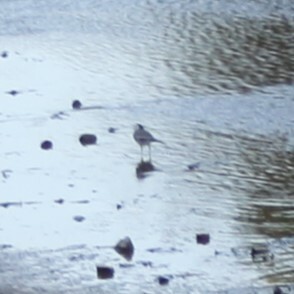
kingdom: Animalia
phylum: Chordata
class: Aves
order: Passeriformes
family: Motacillidae
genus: Motacilla
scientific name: Motacilla alba
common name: White wagtail
